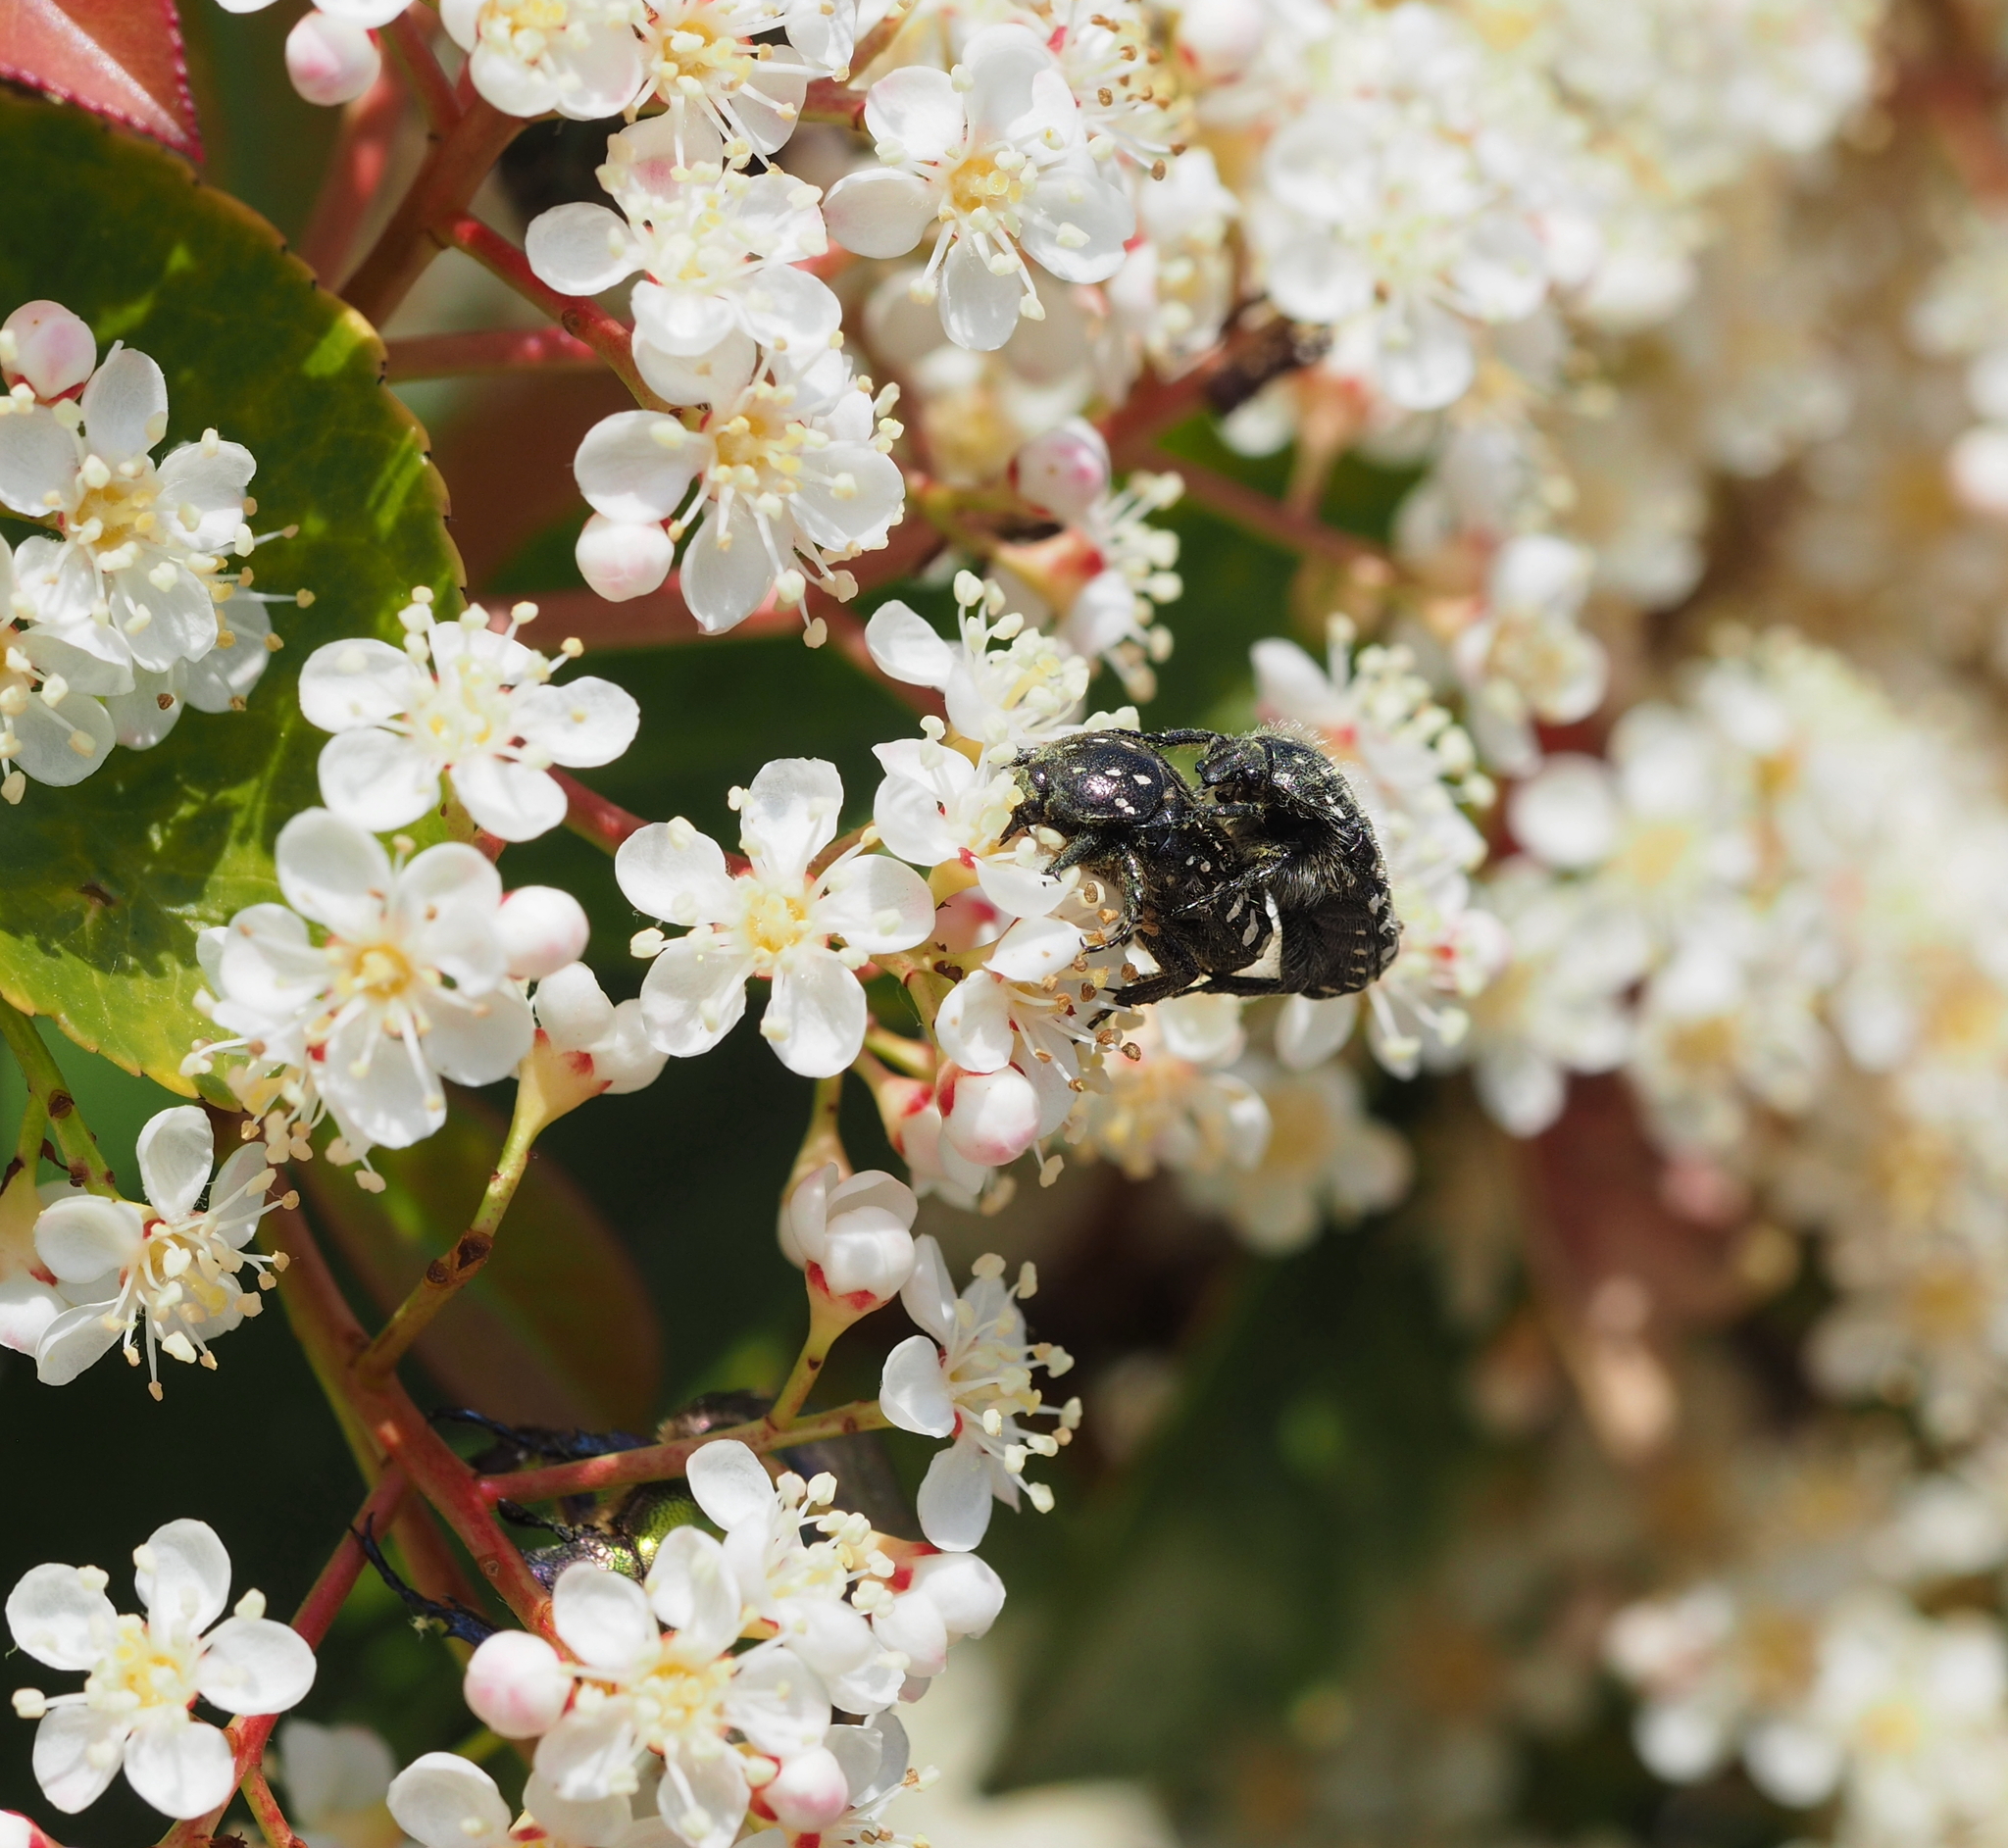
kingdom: Animalia
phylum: Arthropoda
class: Insecta
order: Coleoptera
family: Scarabaeidae
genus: Oxythyrea
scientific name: Oxythyrea funesta
